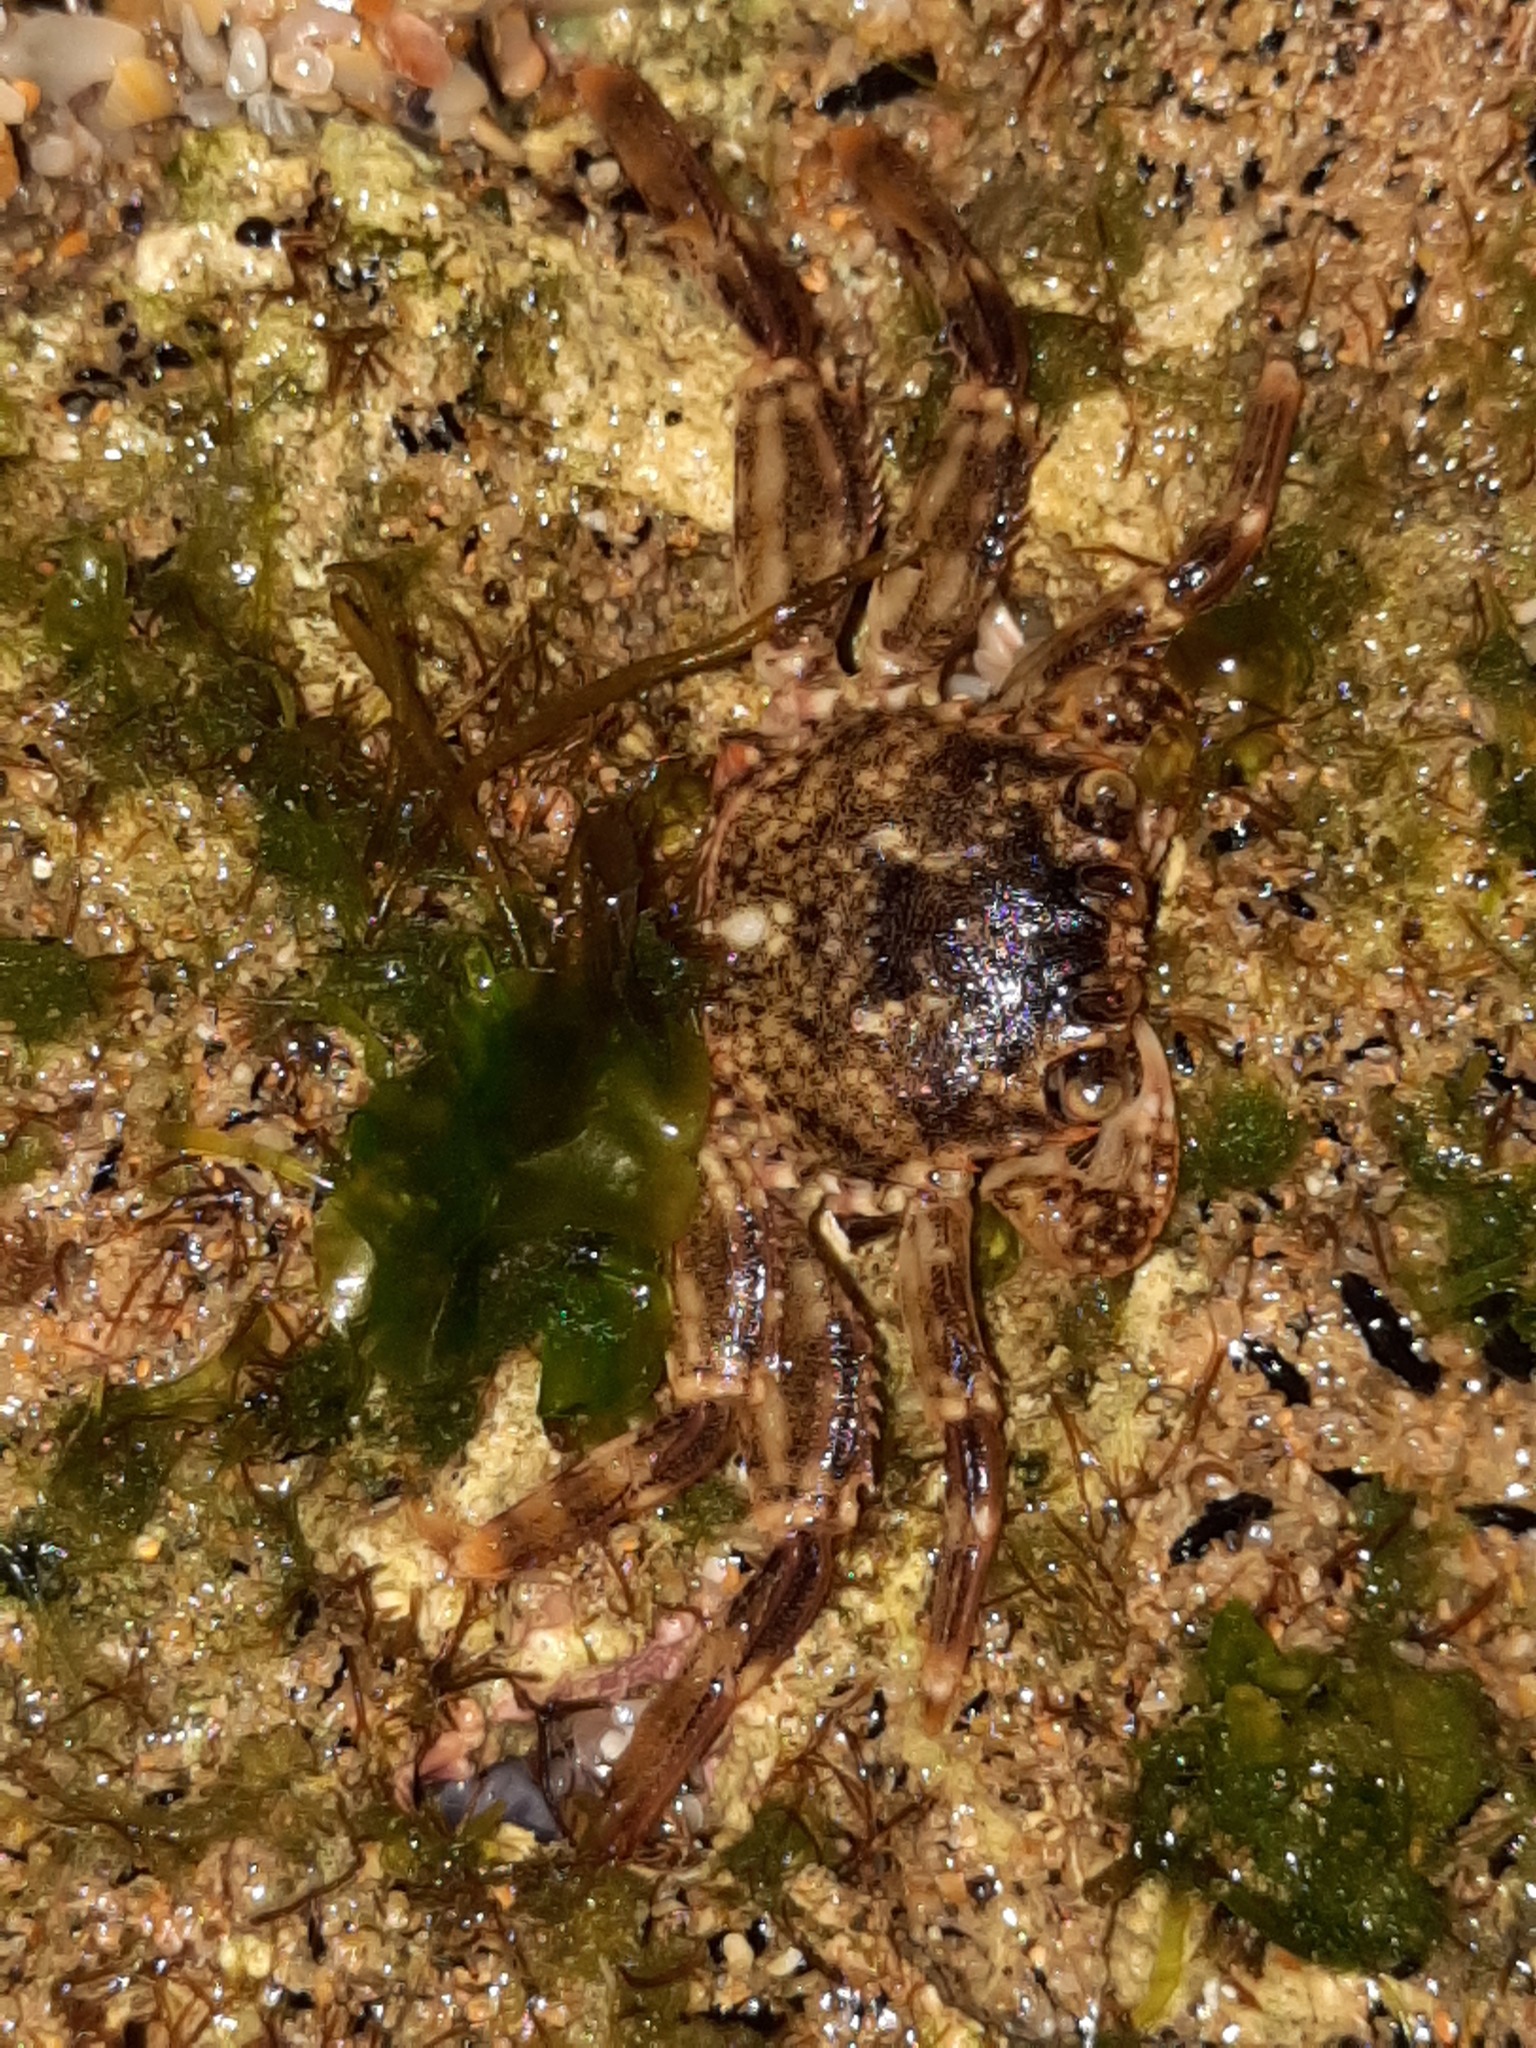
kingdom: Animalia
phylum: Arthropoda
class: Malacostraca
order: Decapoda
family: Plagusiidae
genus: Guinusia
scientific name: Guinusia chabrus
